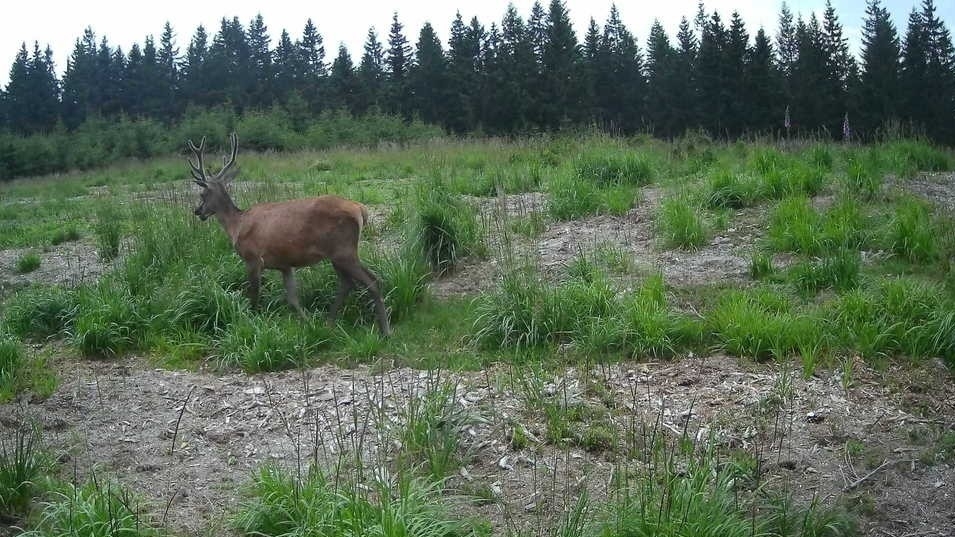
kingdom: Animalia
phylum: Chordata
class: Mammalia
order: Artiodactyla
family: Cervidae
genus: Cervus
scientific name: Cervus elaphus
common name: Red deer
